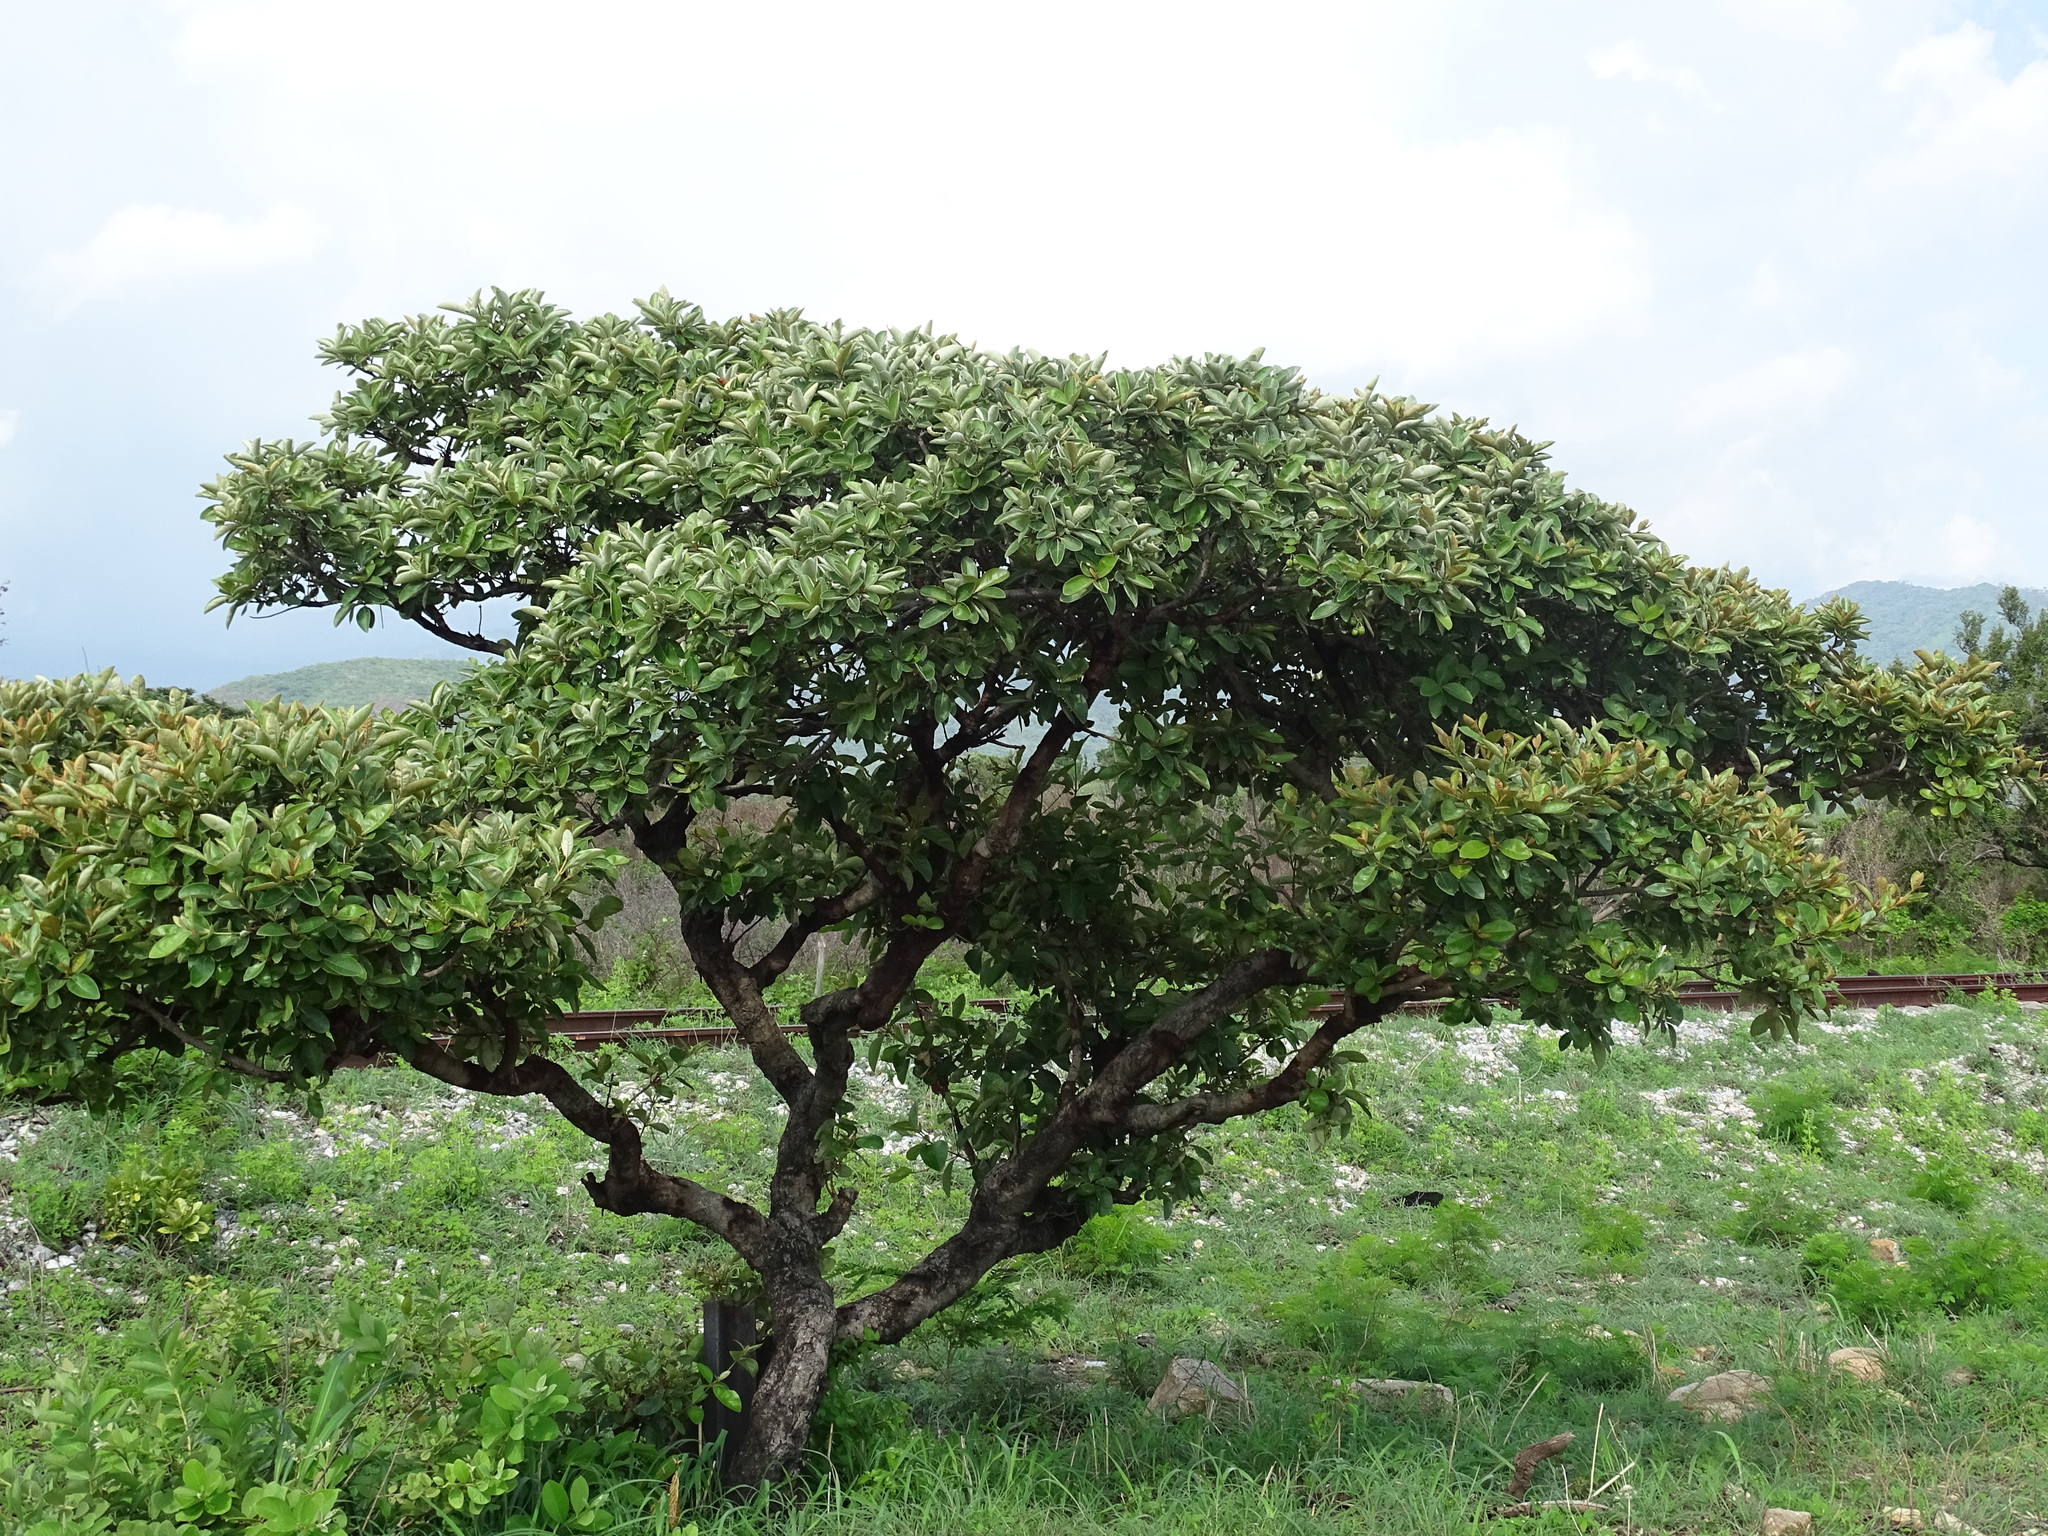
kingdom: Plantae
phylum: Tracheophyta
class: Magnoliopsida
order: Malpighiales
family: Malpighiaceae
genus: Byrsonima
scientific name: Byrsonima crassifolia
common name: Golden spoon
